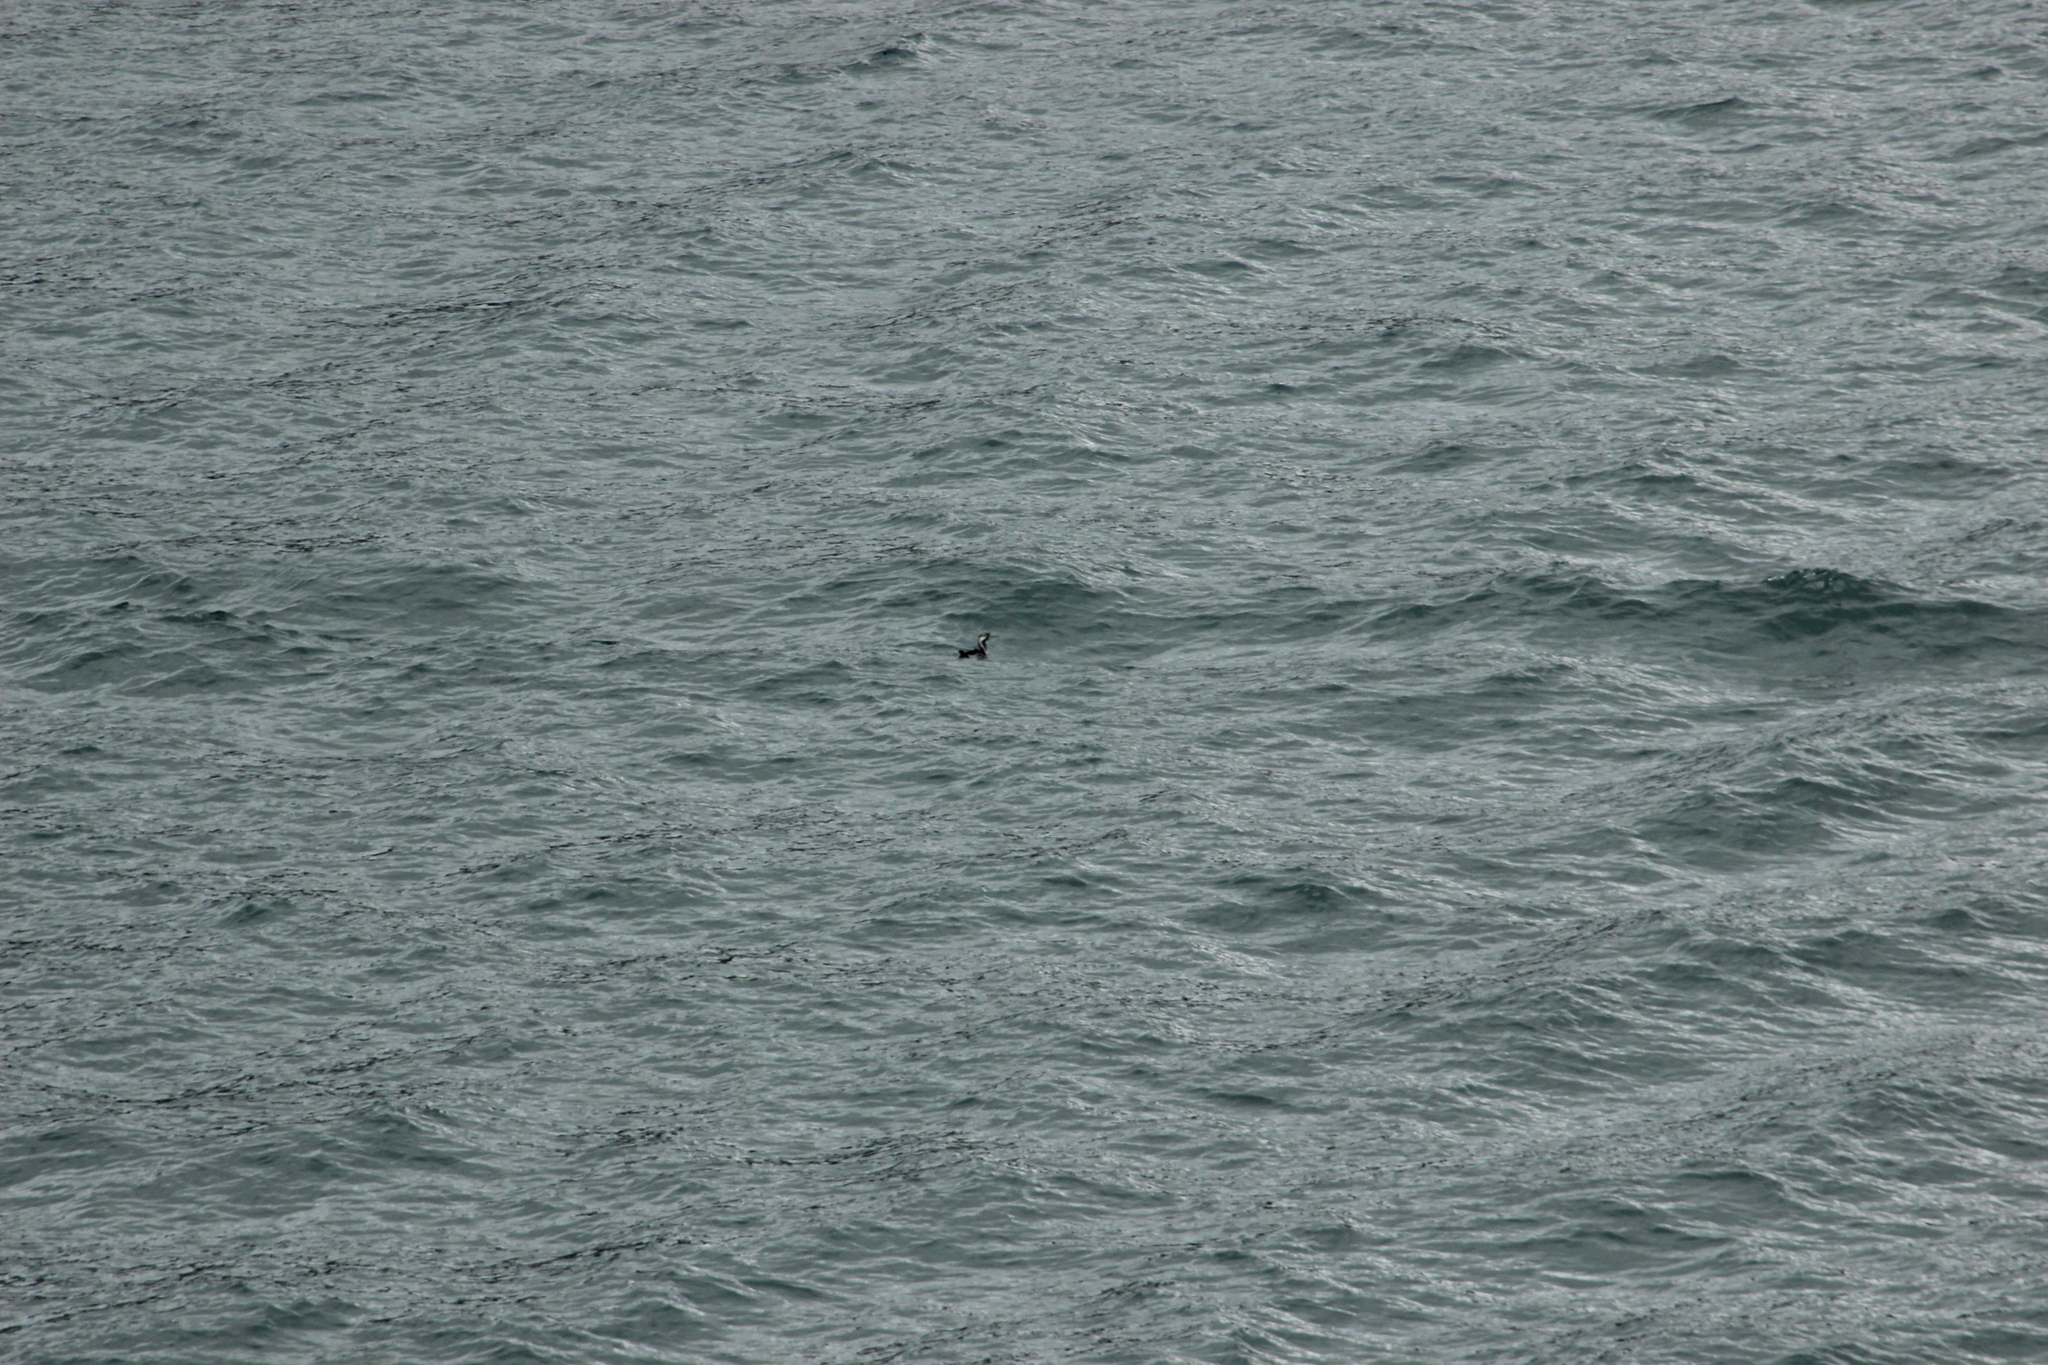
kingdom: Animalia
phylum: Chordata
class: Aves
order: Suliformes
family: Phalacrocoracidae
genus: Phalacrocorax
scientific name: Phalacrocorax punctatus
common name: Spotted shag
